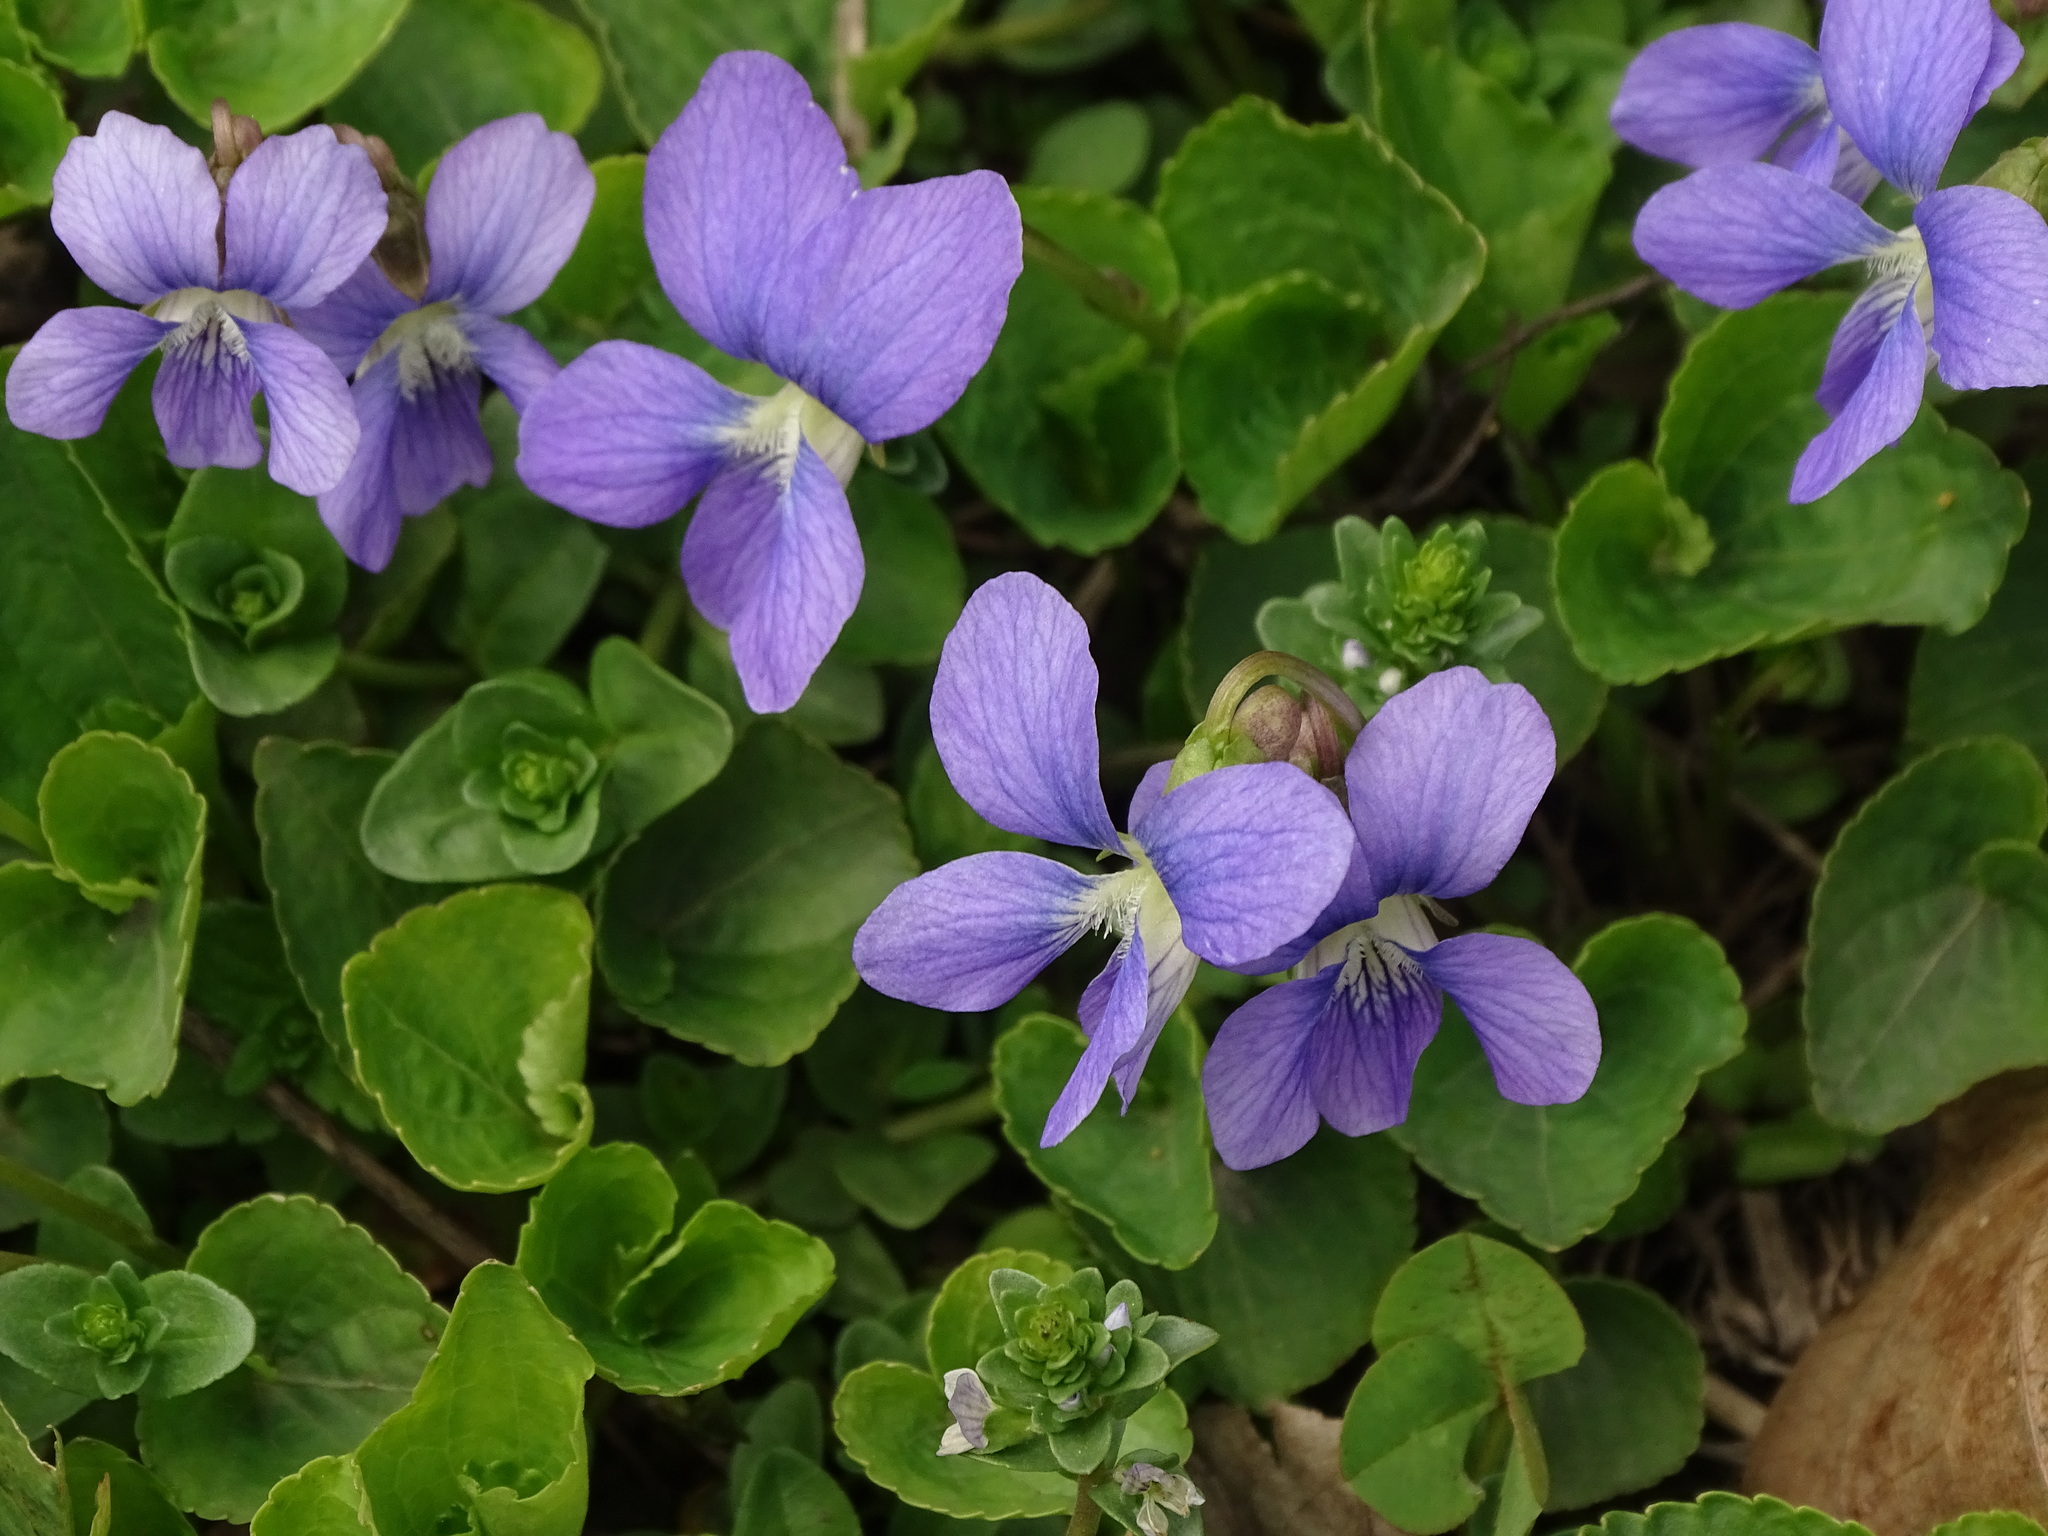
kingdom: Plantae
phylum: Tracheophyta
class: Magnoliopsida
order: Malpighiales
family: Violaceae
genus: Viola
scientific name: Viola sororia
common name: Dooryard violet
